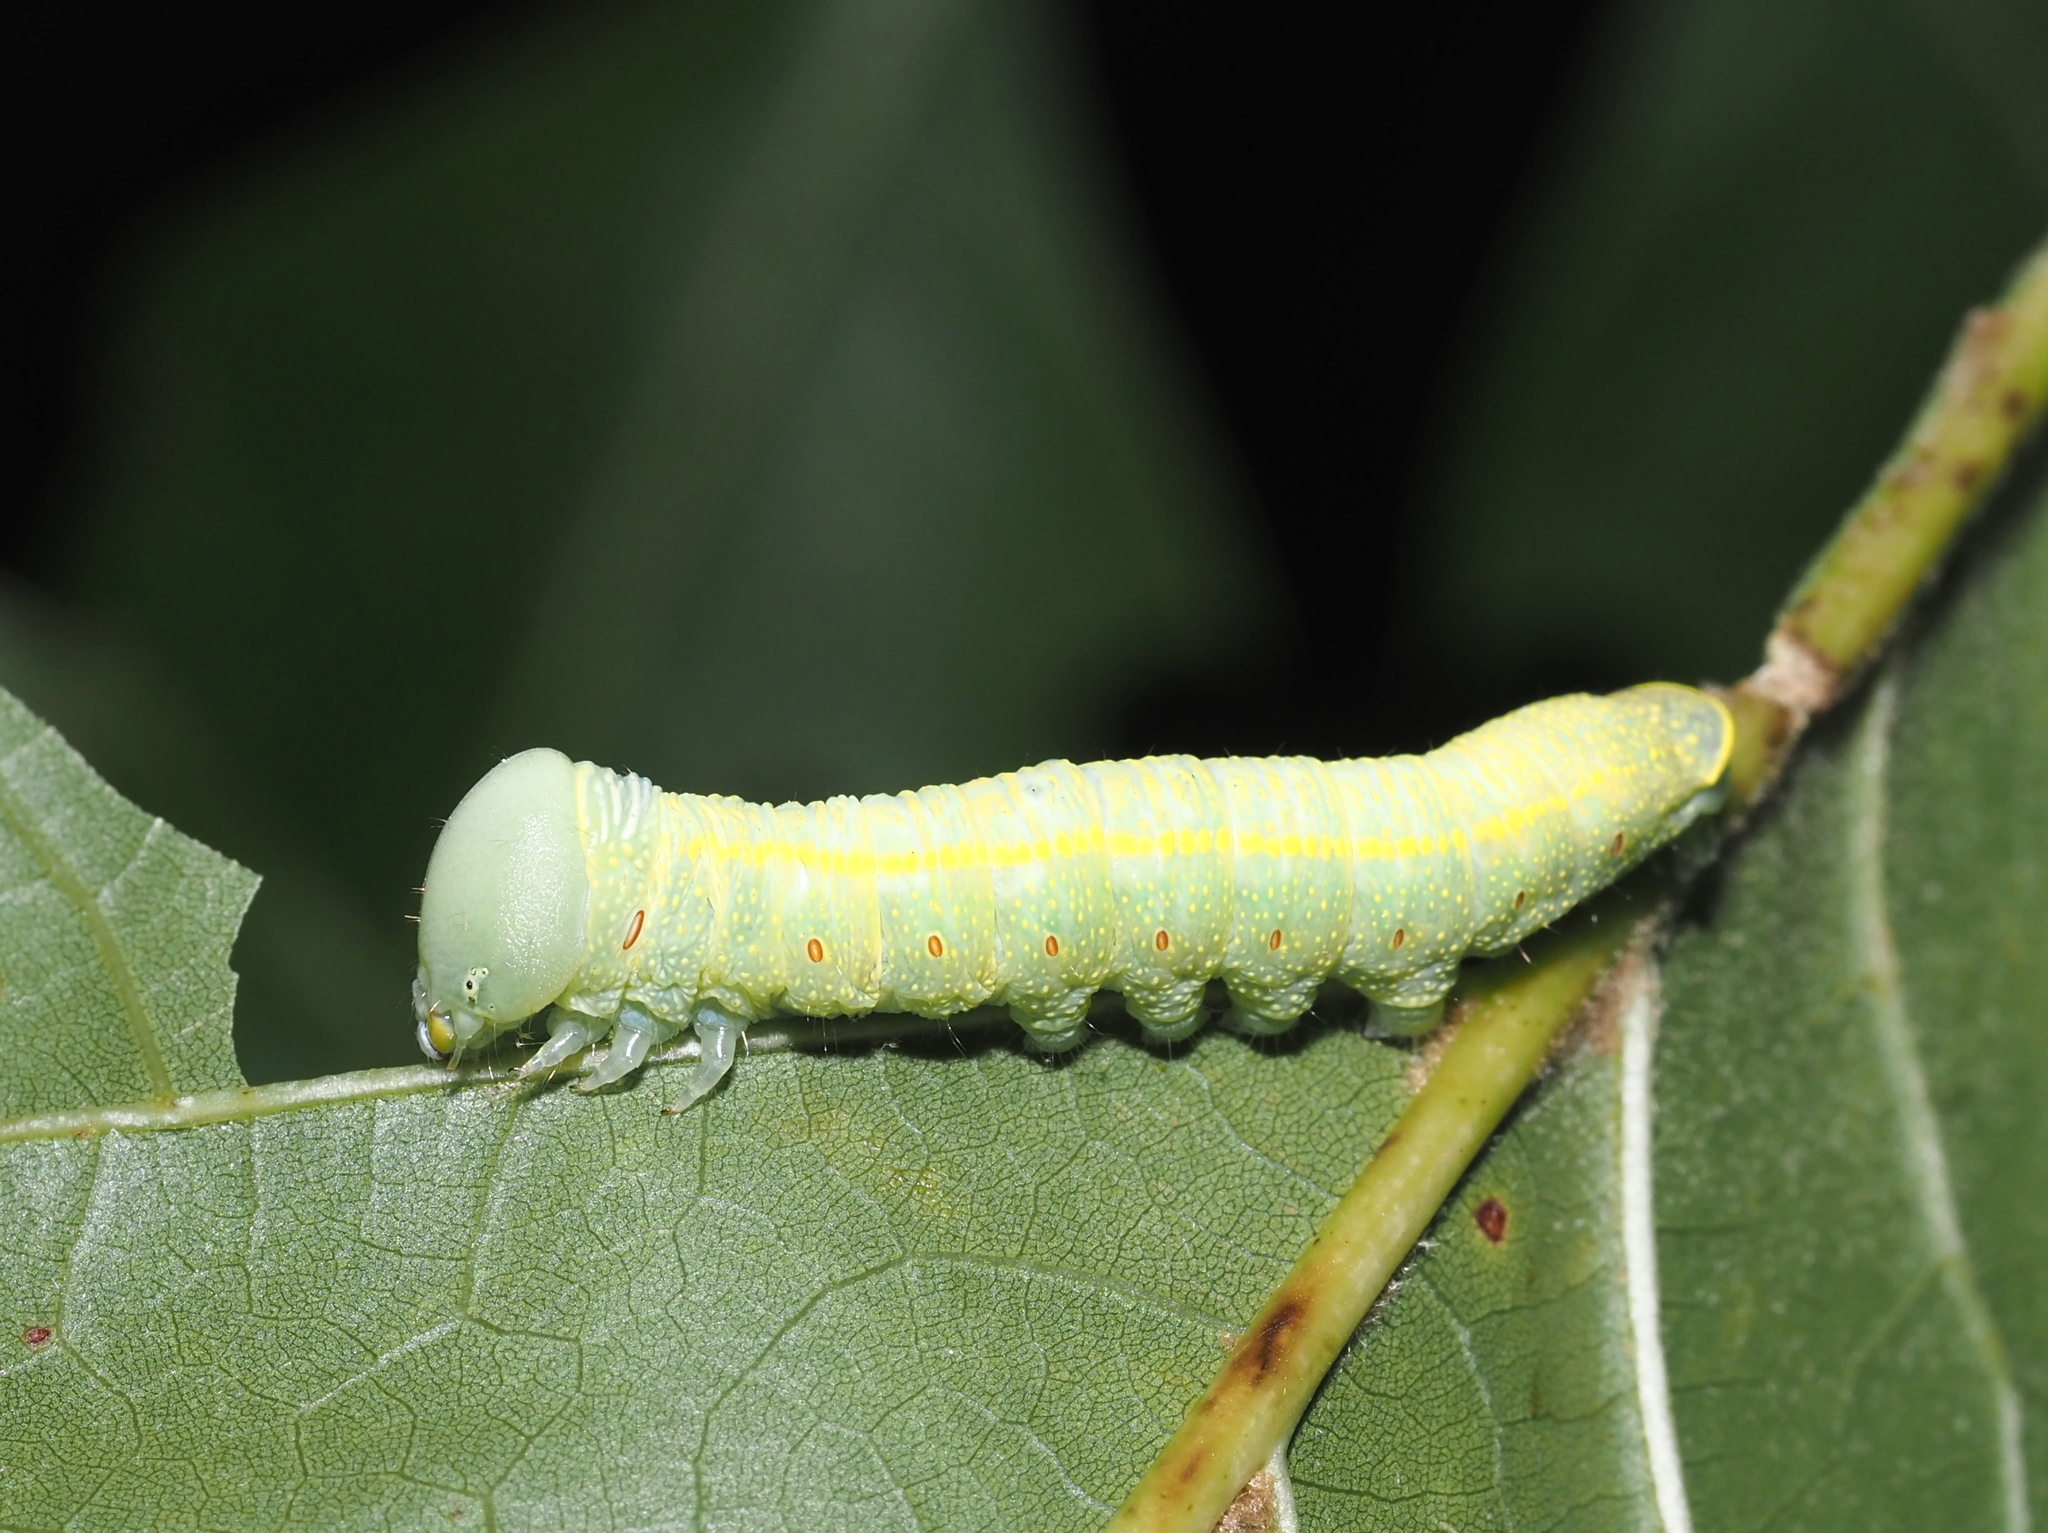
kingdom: Animalia
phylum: Arthropoda
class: Insecta
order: Lepidoptera
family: Notodontidae
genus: Nadata
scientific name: Nadata gibbosa
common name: White-dotted prominent
